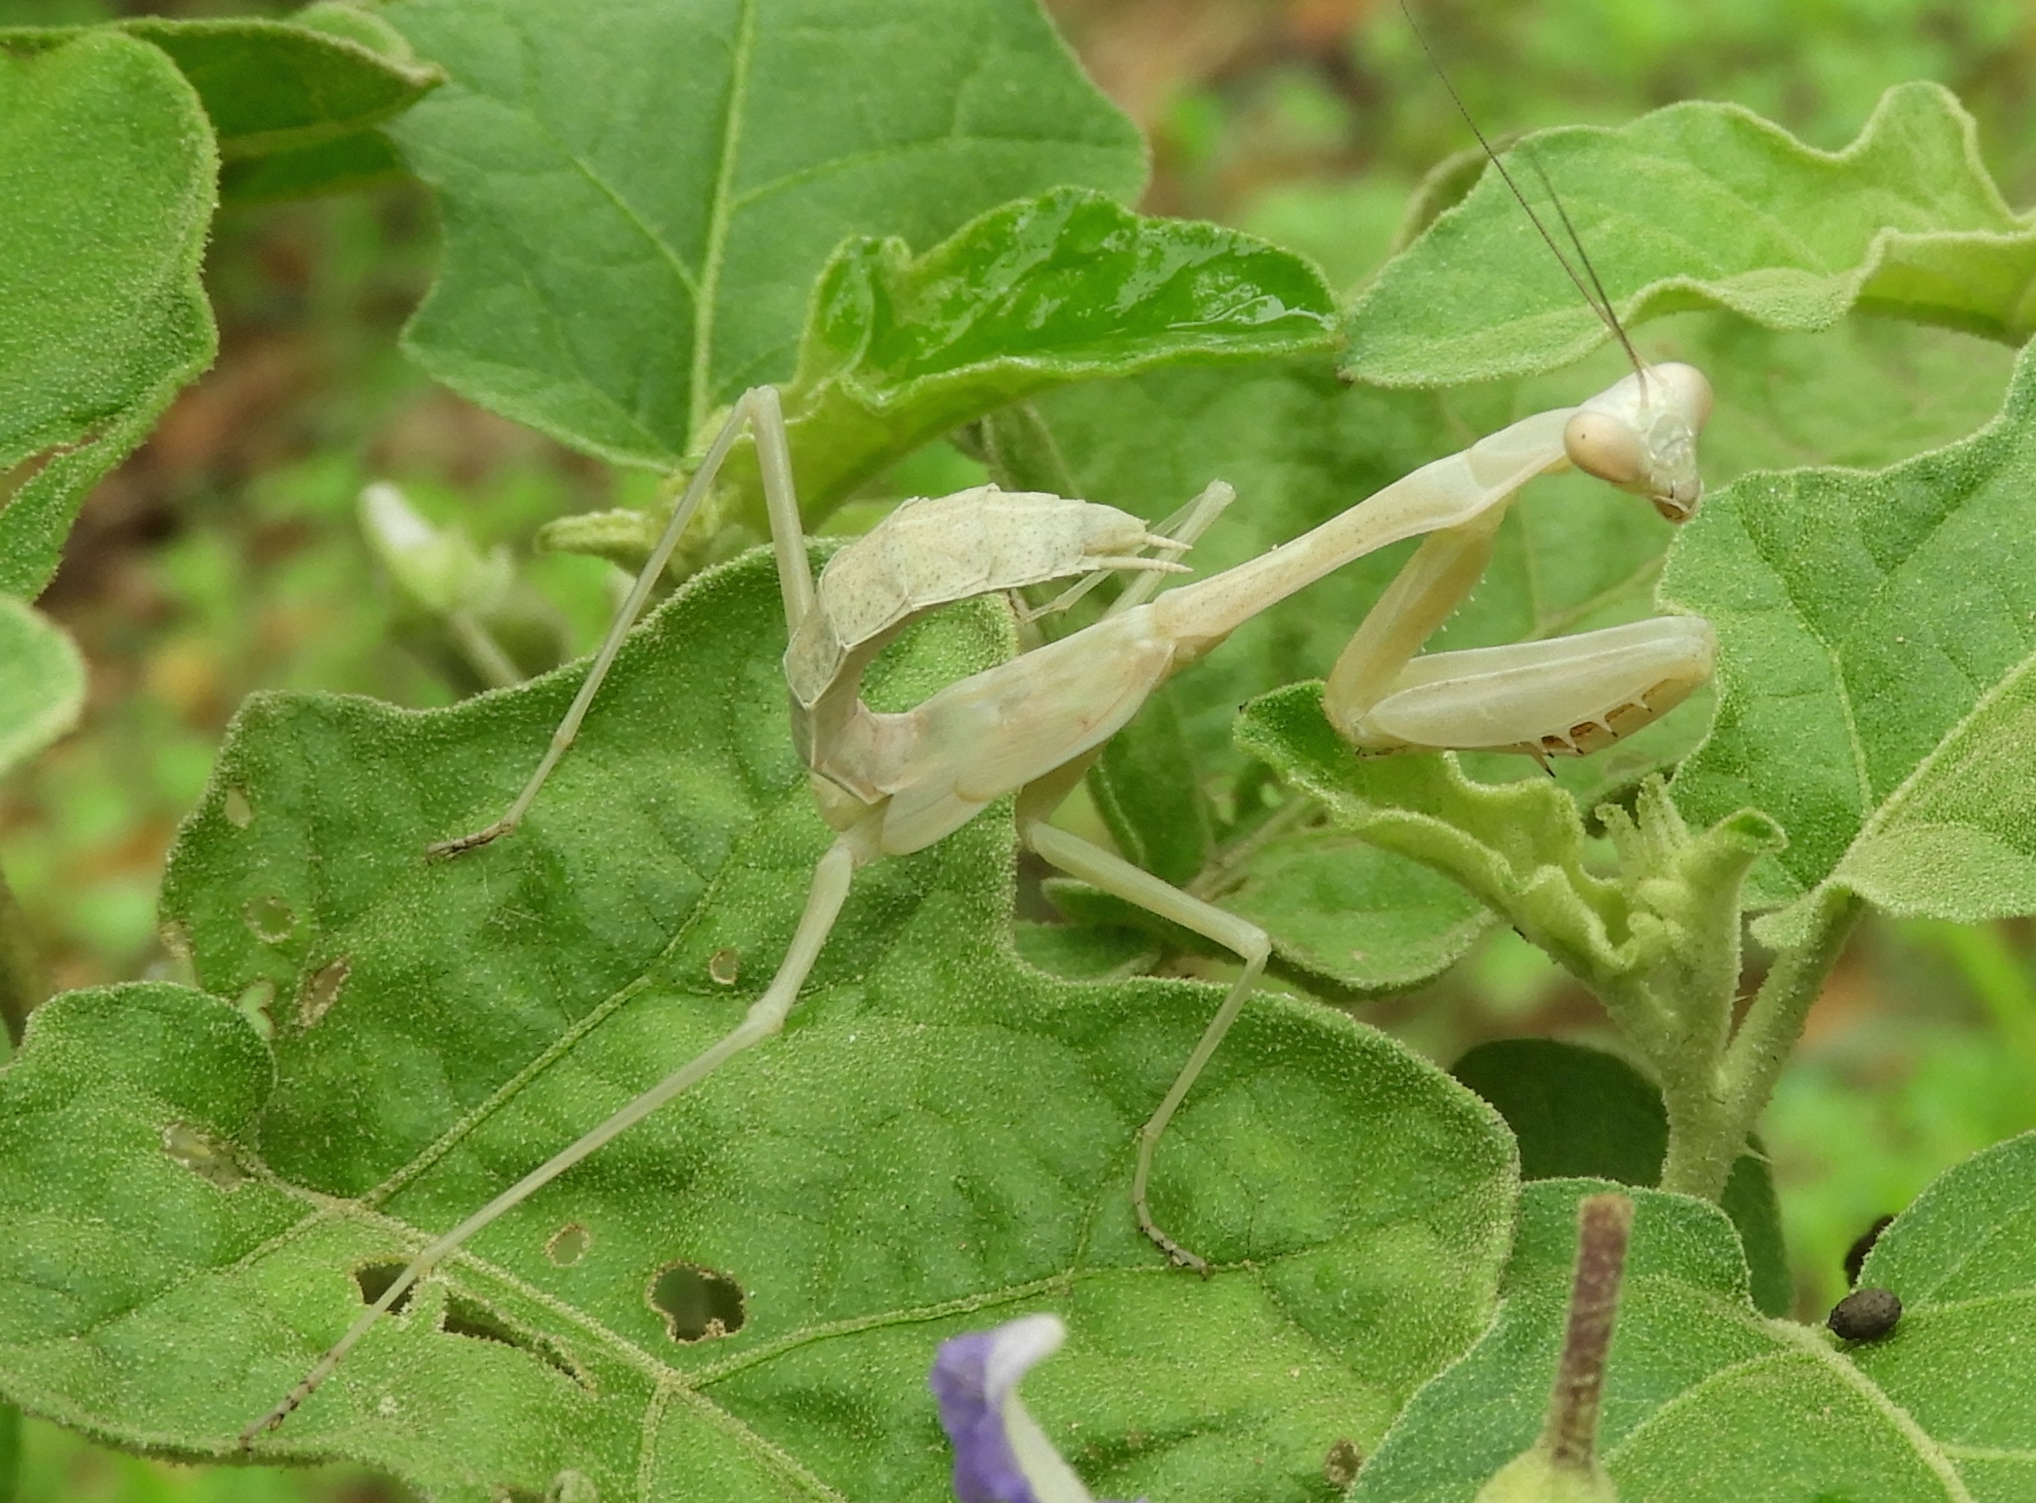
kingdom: Animalia
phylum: Arthropoda
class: Insecta
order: Mantodea
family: Mantidae
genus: Stagmomantis
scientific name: Stagmomantis
